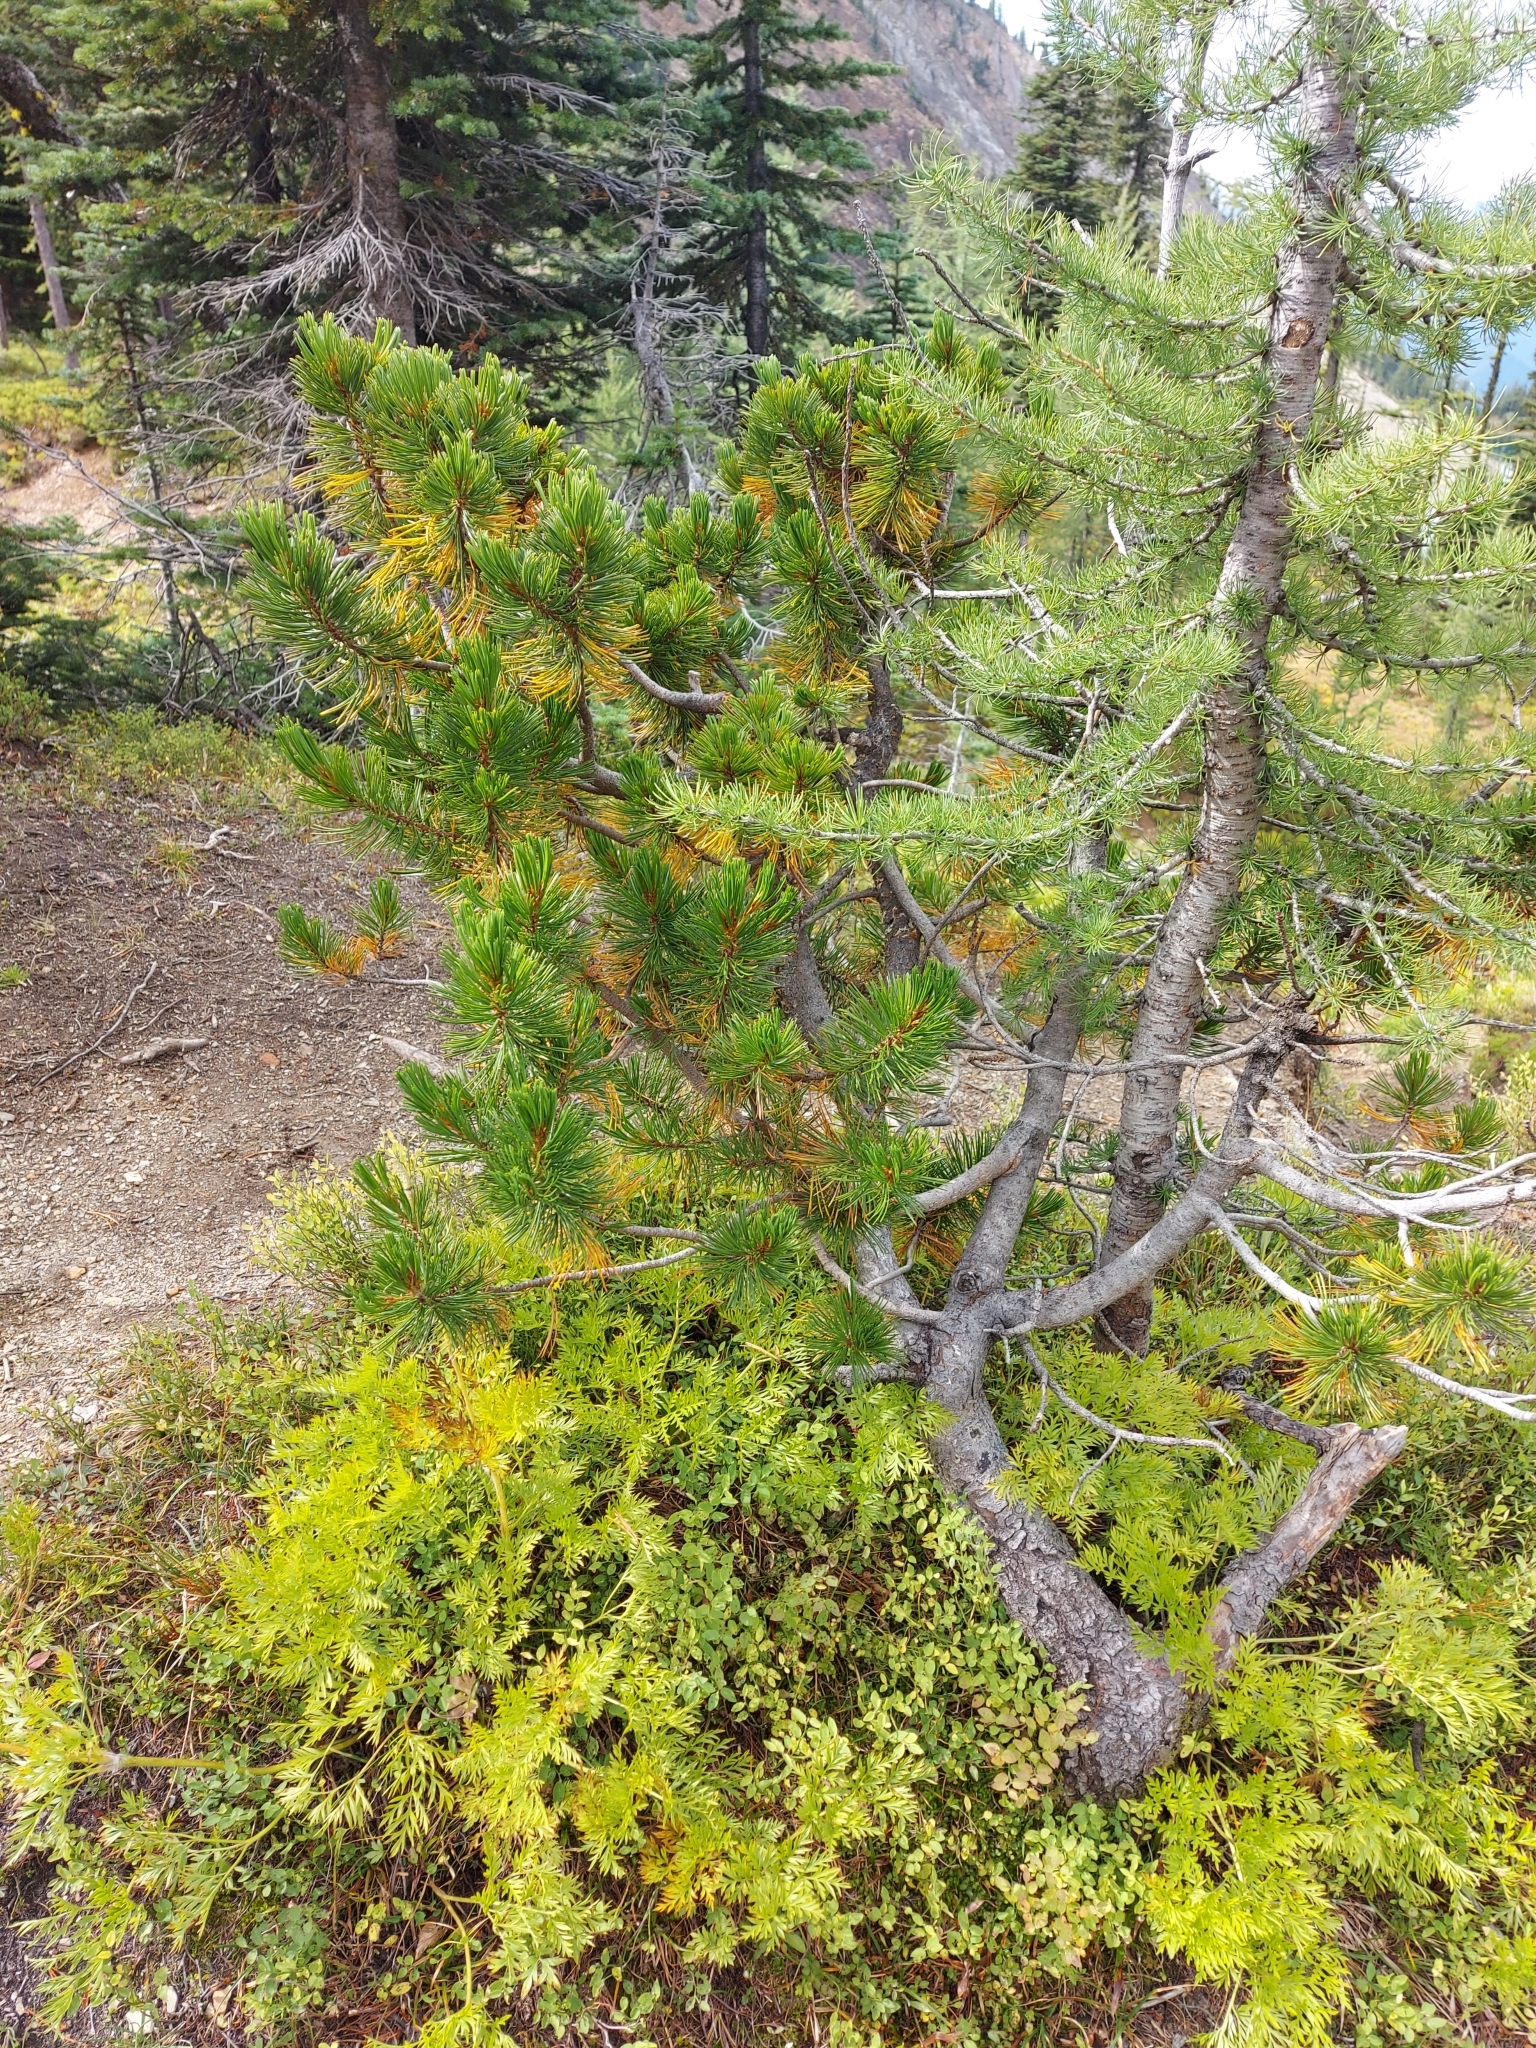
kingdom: Plantae
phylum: Tracheophyta
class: Pinopsida
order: Pinales
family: Pinaceae
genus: Pinus
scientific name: Pinus albicaulis
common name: Whitebark pine
